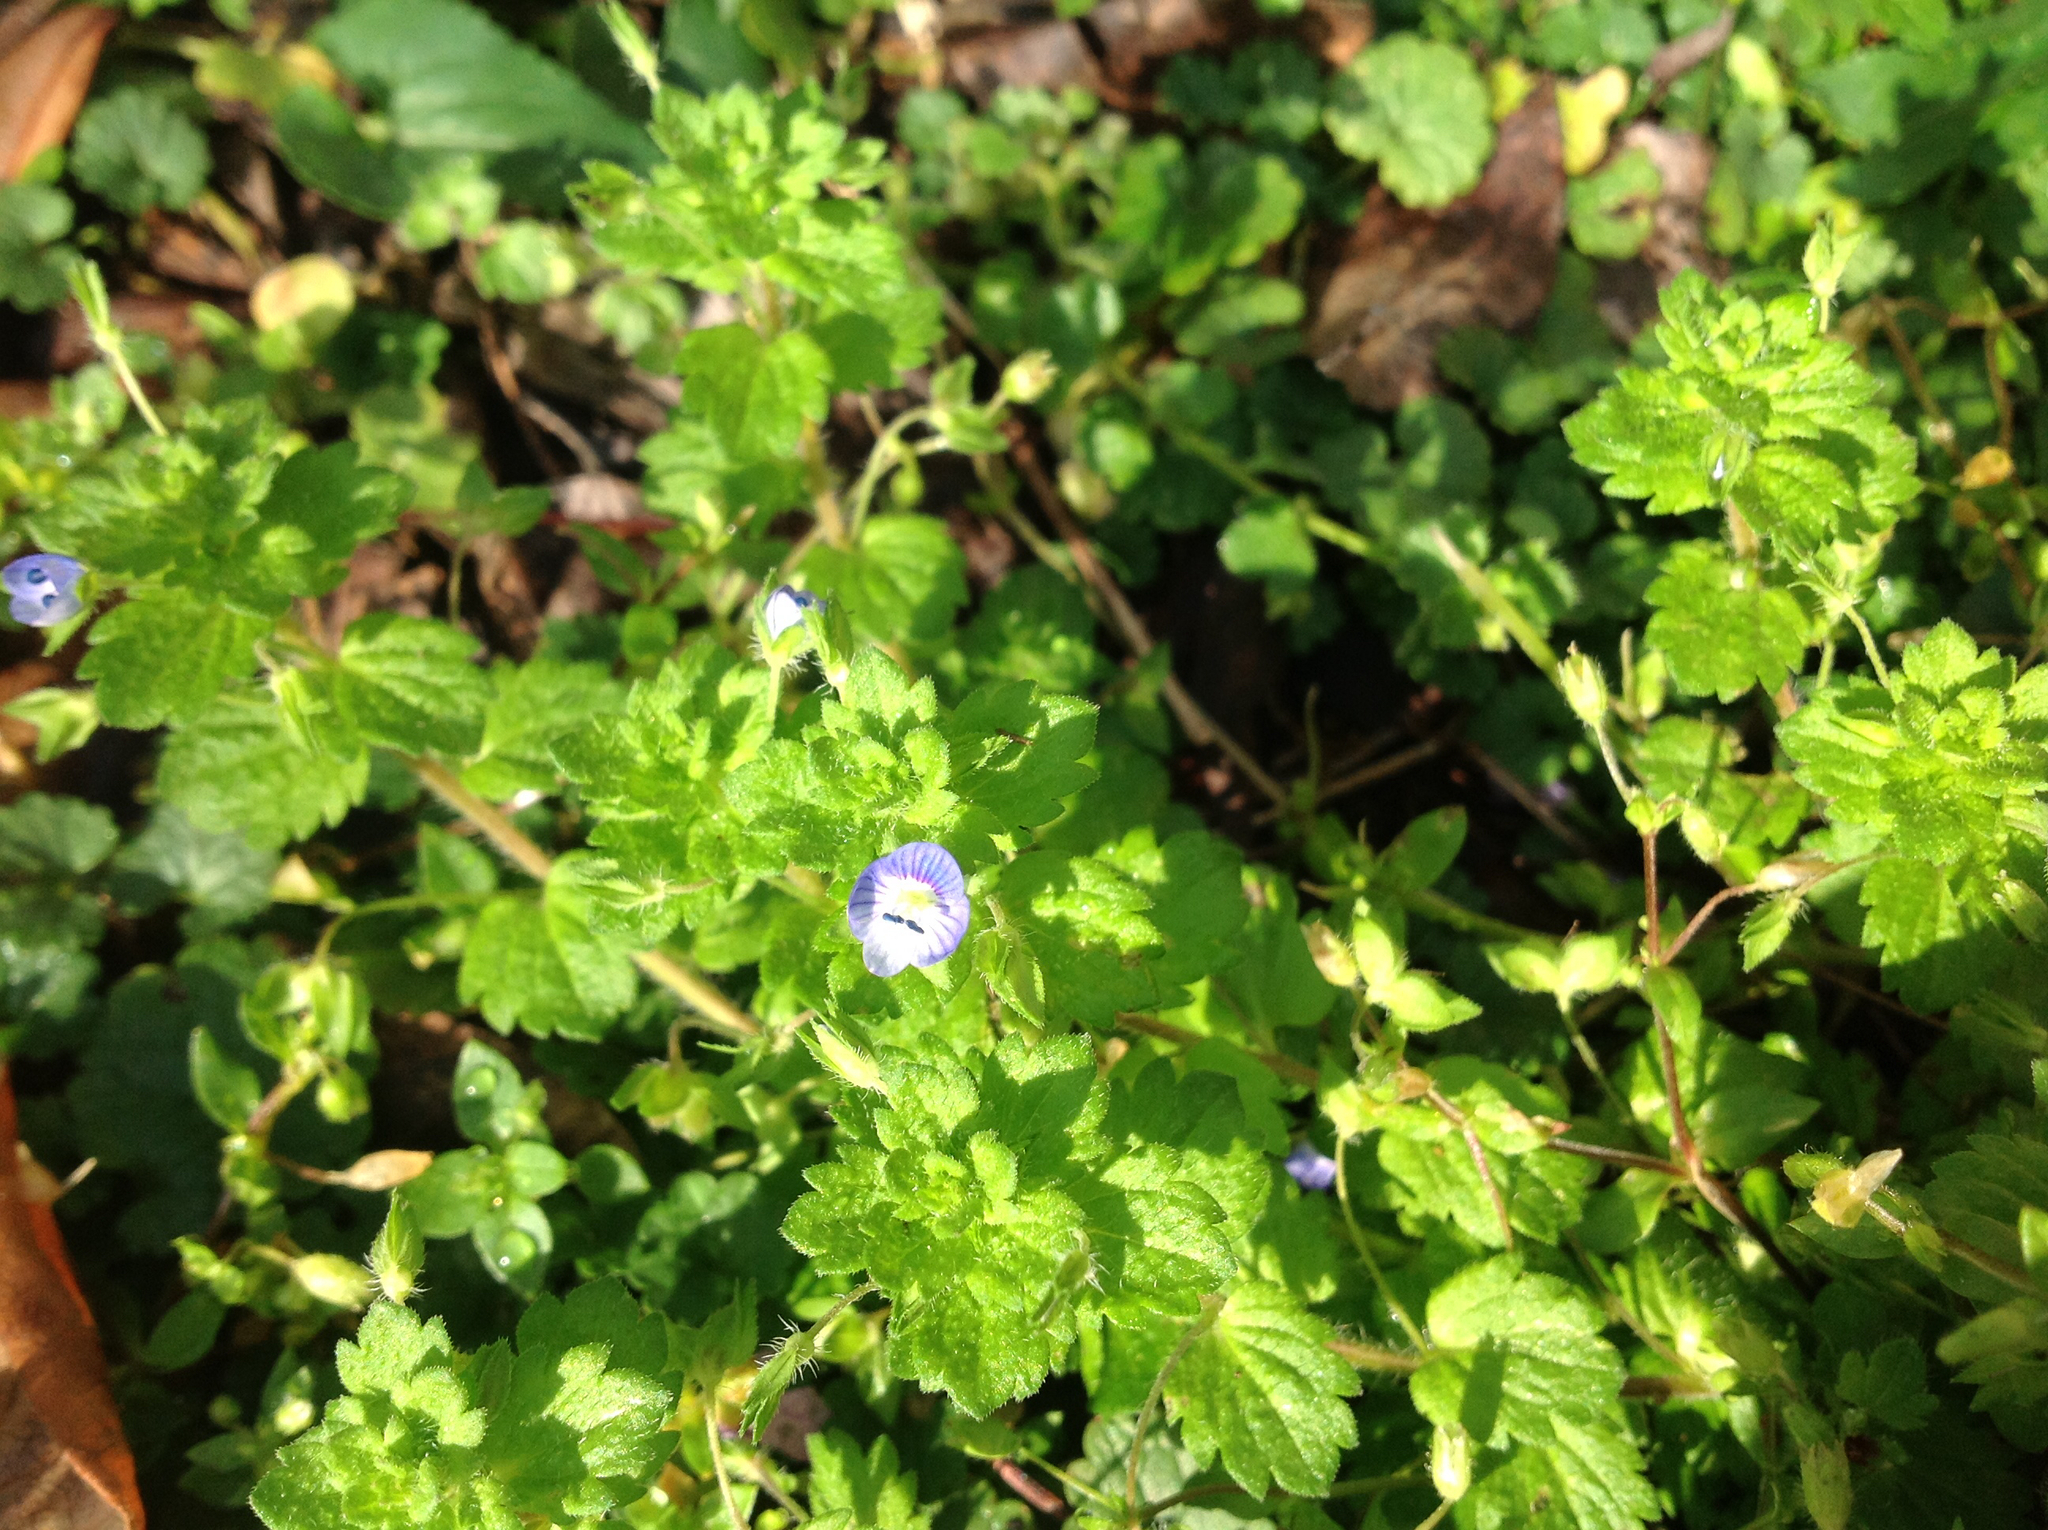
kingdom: Plantae
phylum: Tracheophyta
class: Magnoliopsida
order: Lamiales
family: Plantaginaceae
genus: Veronica
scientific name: Veronica persica
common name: Common field-speedwell
